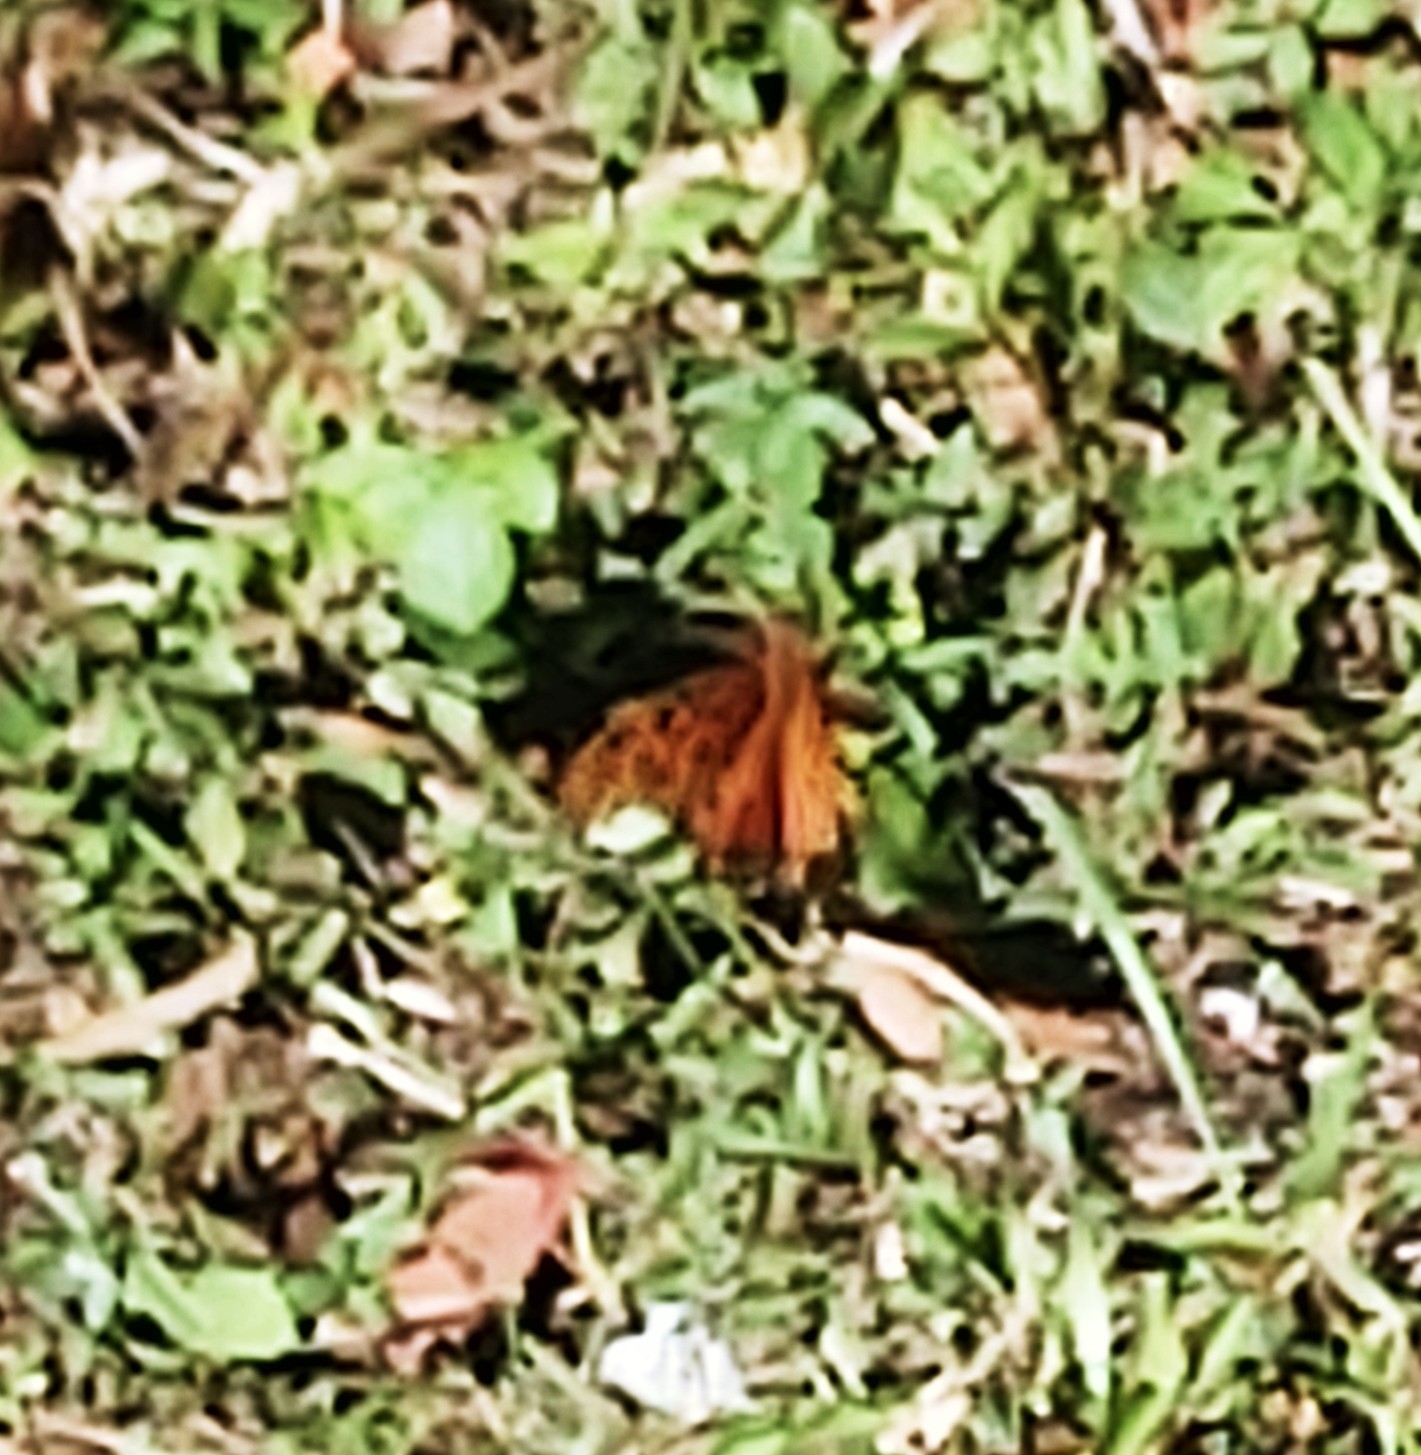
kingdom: Animalia
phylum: Arthropoda
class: Insecta
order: Lepidoptera
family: Nymphalidae
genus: Dione
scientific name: Dione vanillae
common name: Gulf fritillary
